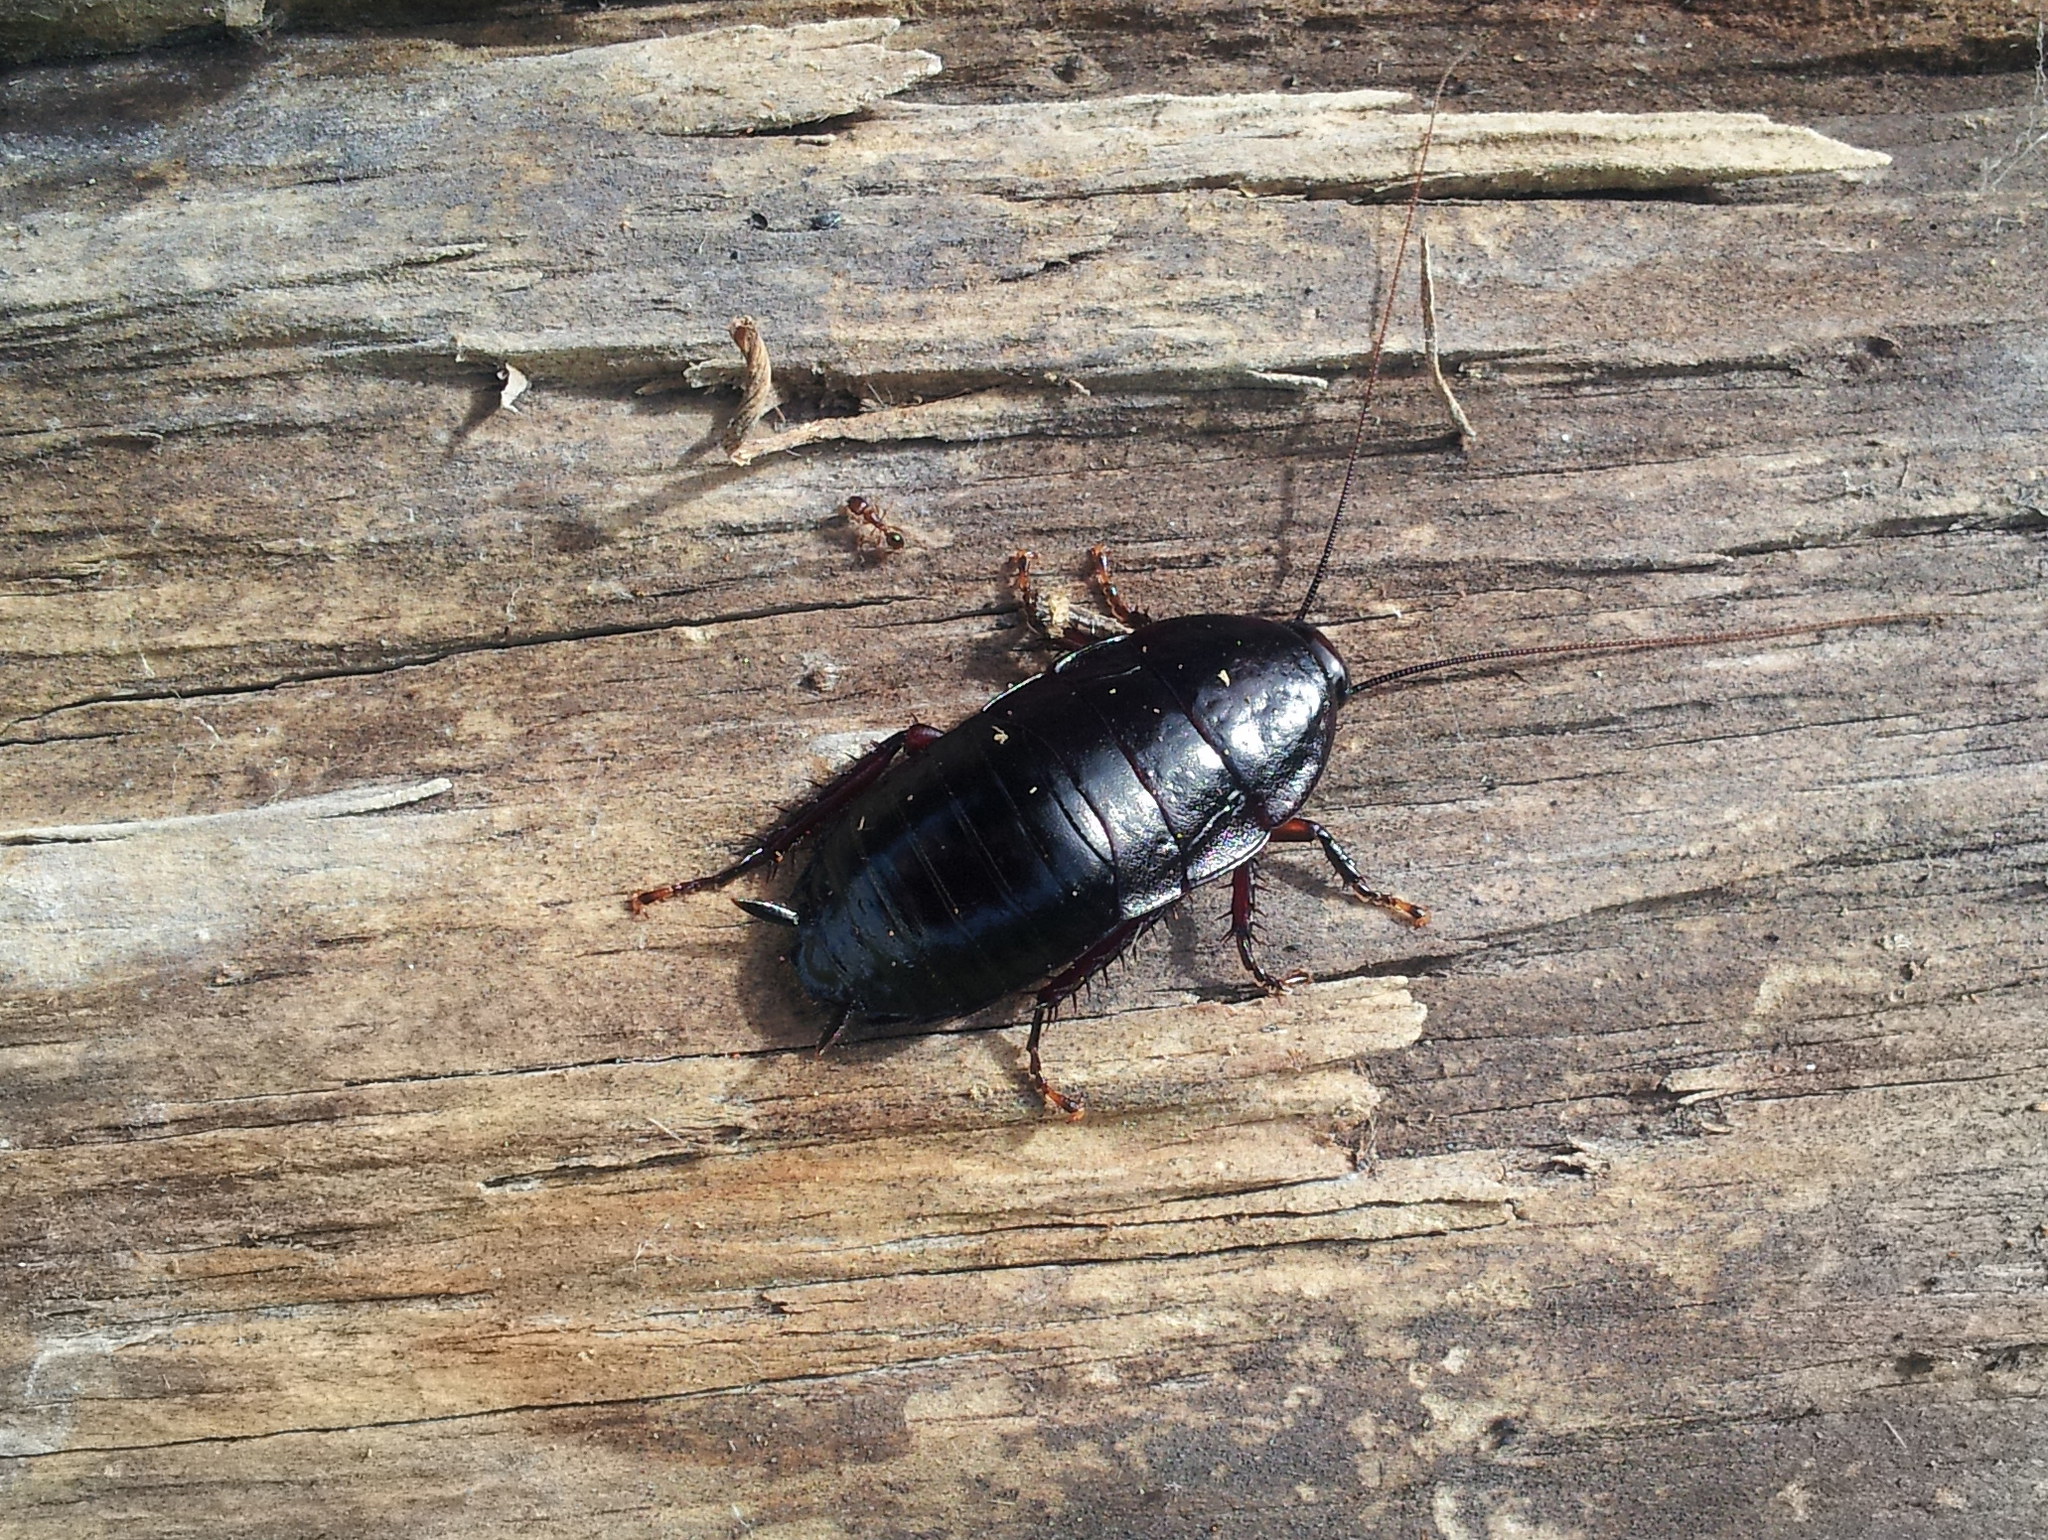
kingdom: Animalia
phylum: Arthropoda
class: Insecta
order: Blattodea
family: Blattidae
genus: Maoriblatta
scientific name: Maoriblatta novaeseelandiae
